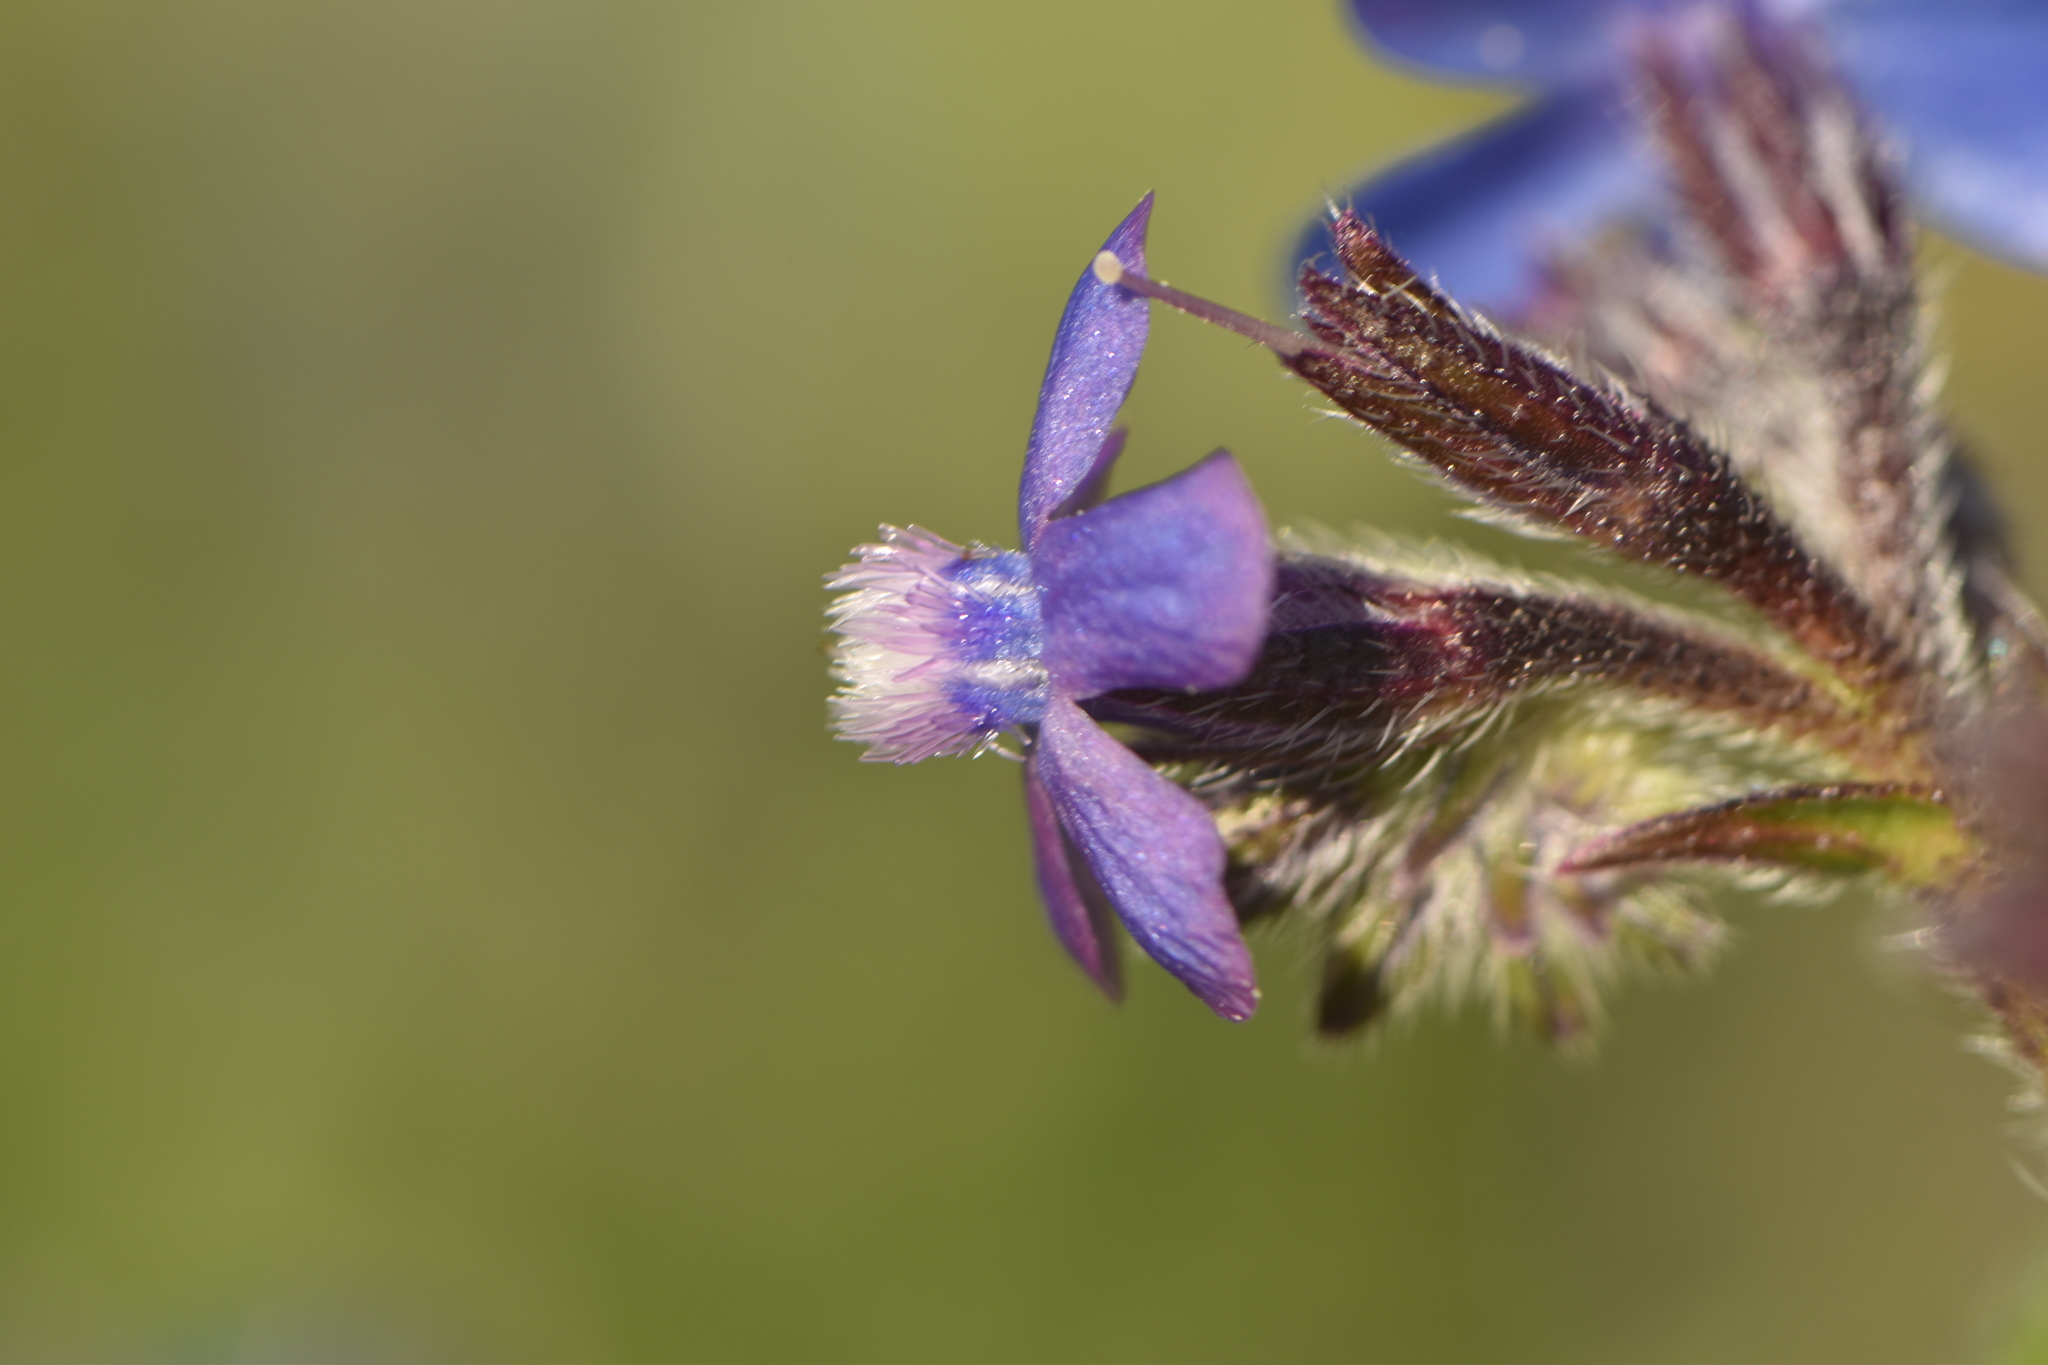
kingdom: Plantae
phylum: Tracheophyta
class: Magnoliopsida
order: Boraginales
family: Boraginaceae
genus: Anchusa
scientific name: Anchusa azurea
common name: Garden anchusa
